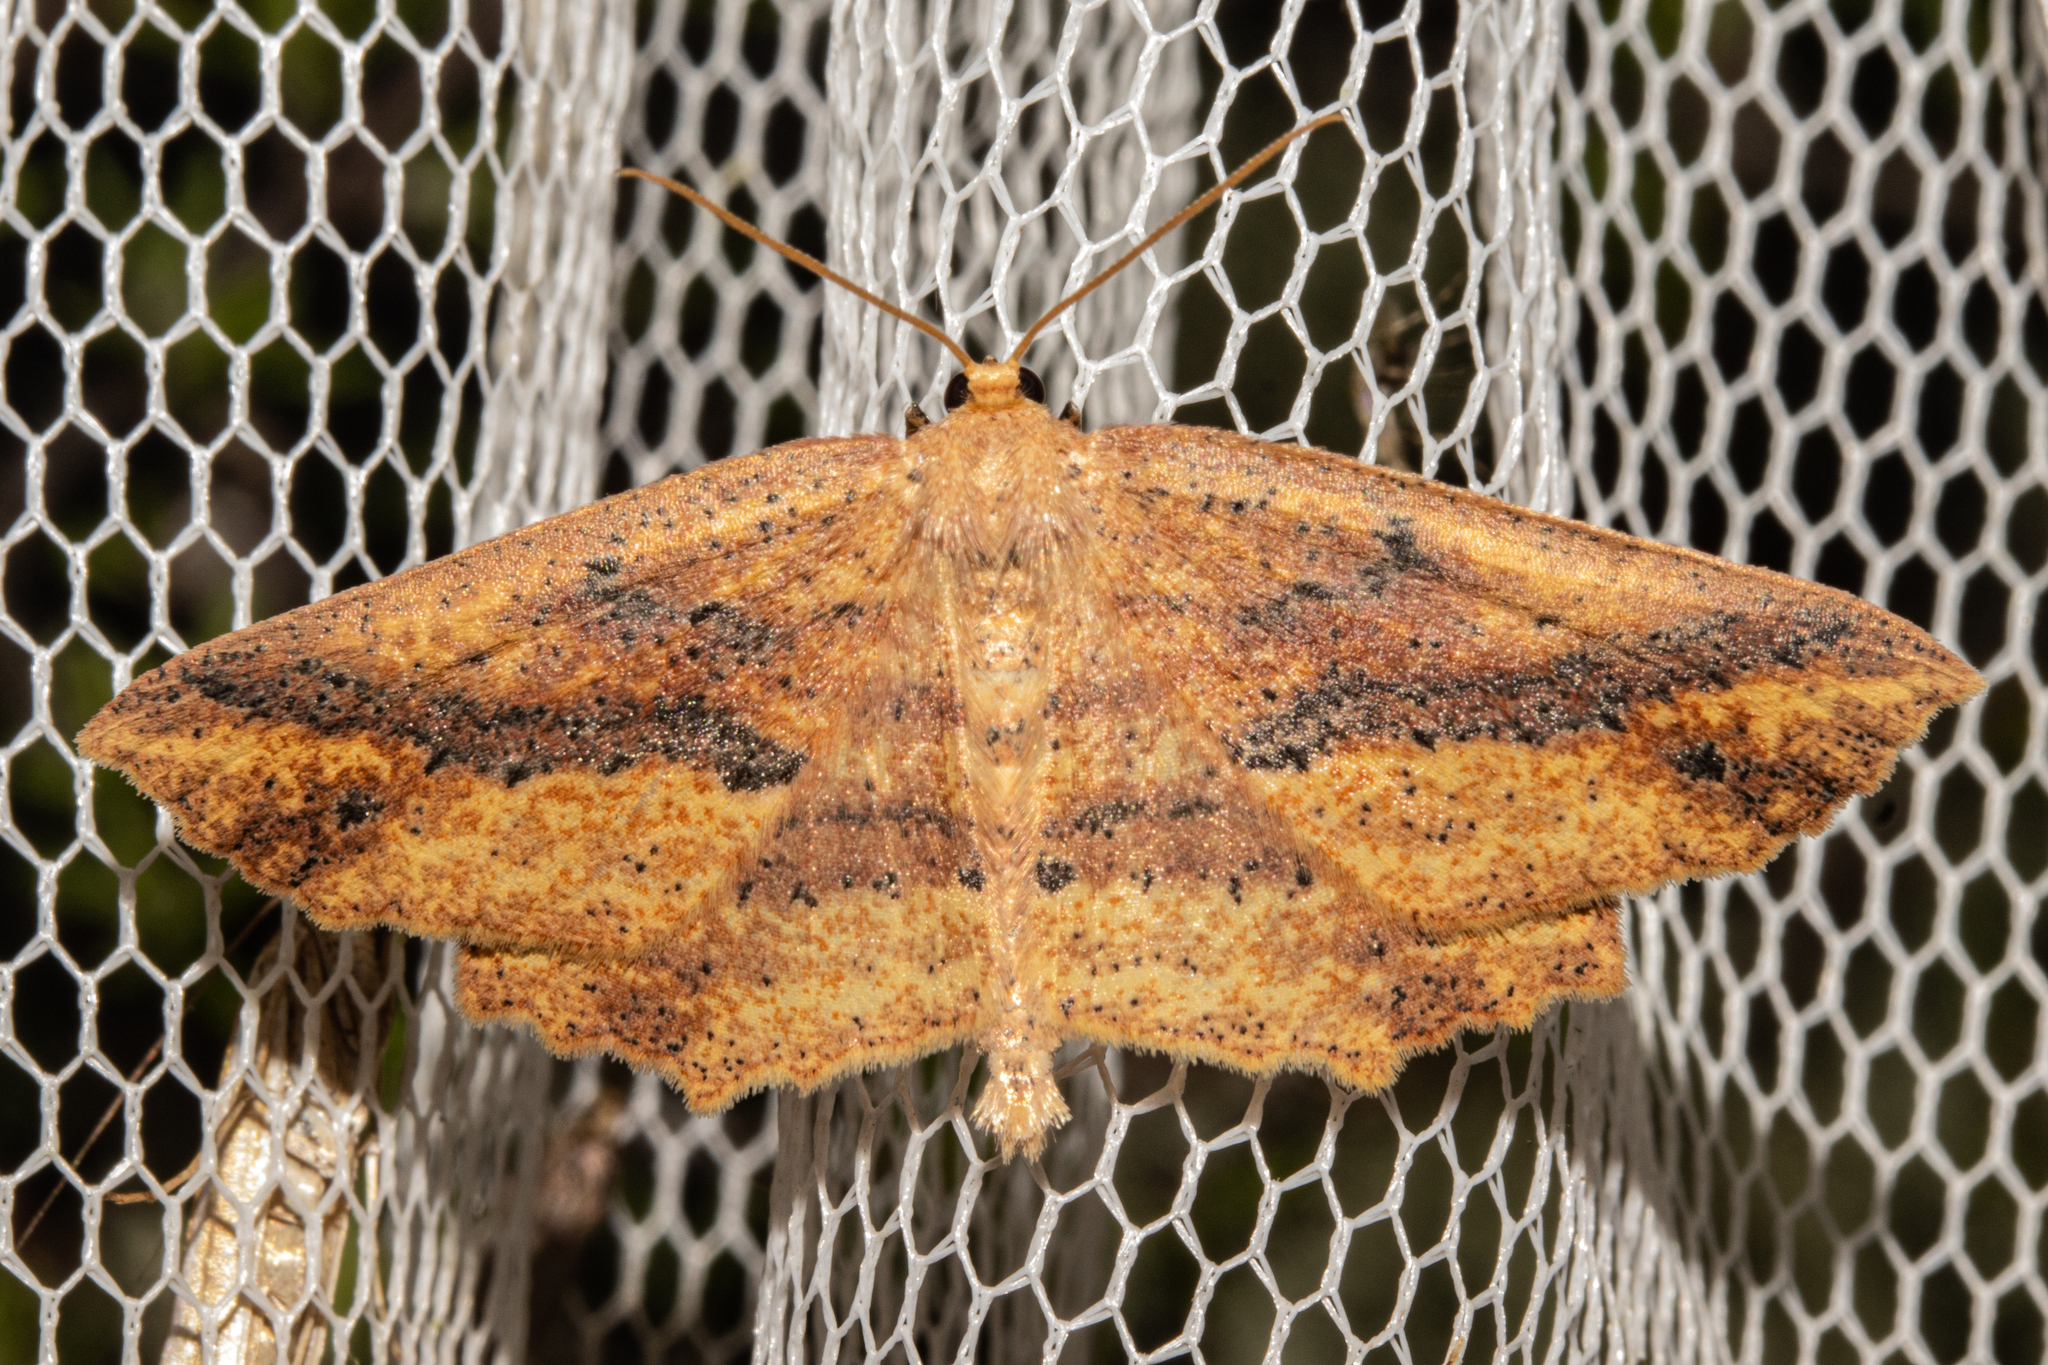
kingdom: Animalia
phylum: Arthropoda
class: Insecta
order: Lepidoptera
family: Geometridae
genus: Xyridacma
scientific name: Xyridacma veronicae
